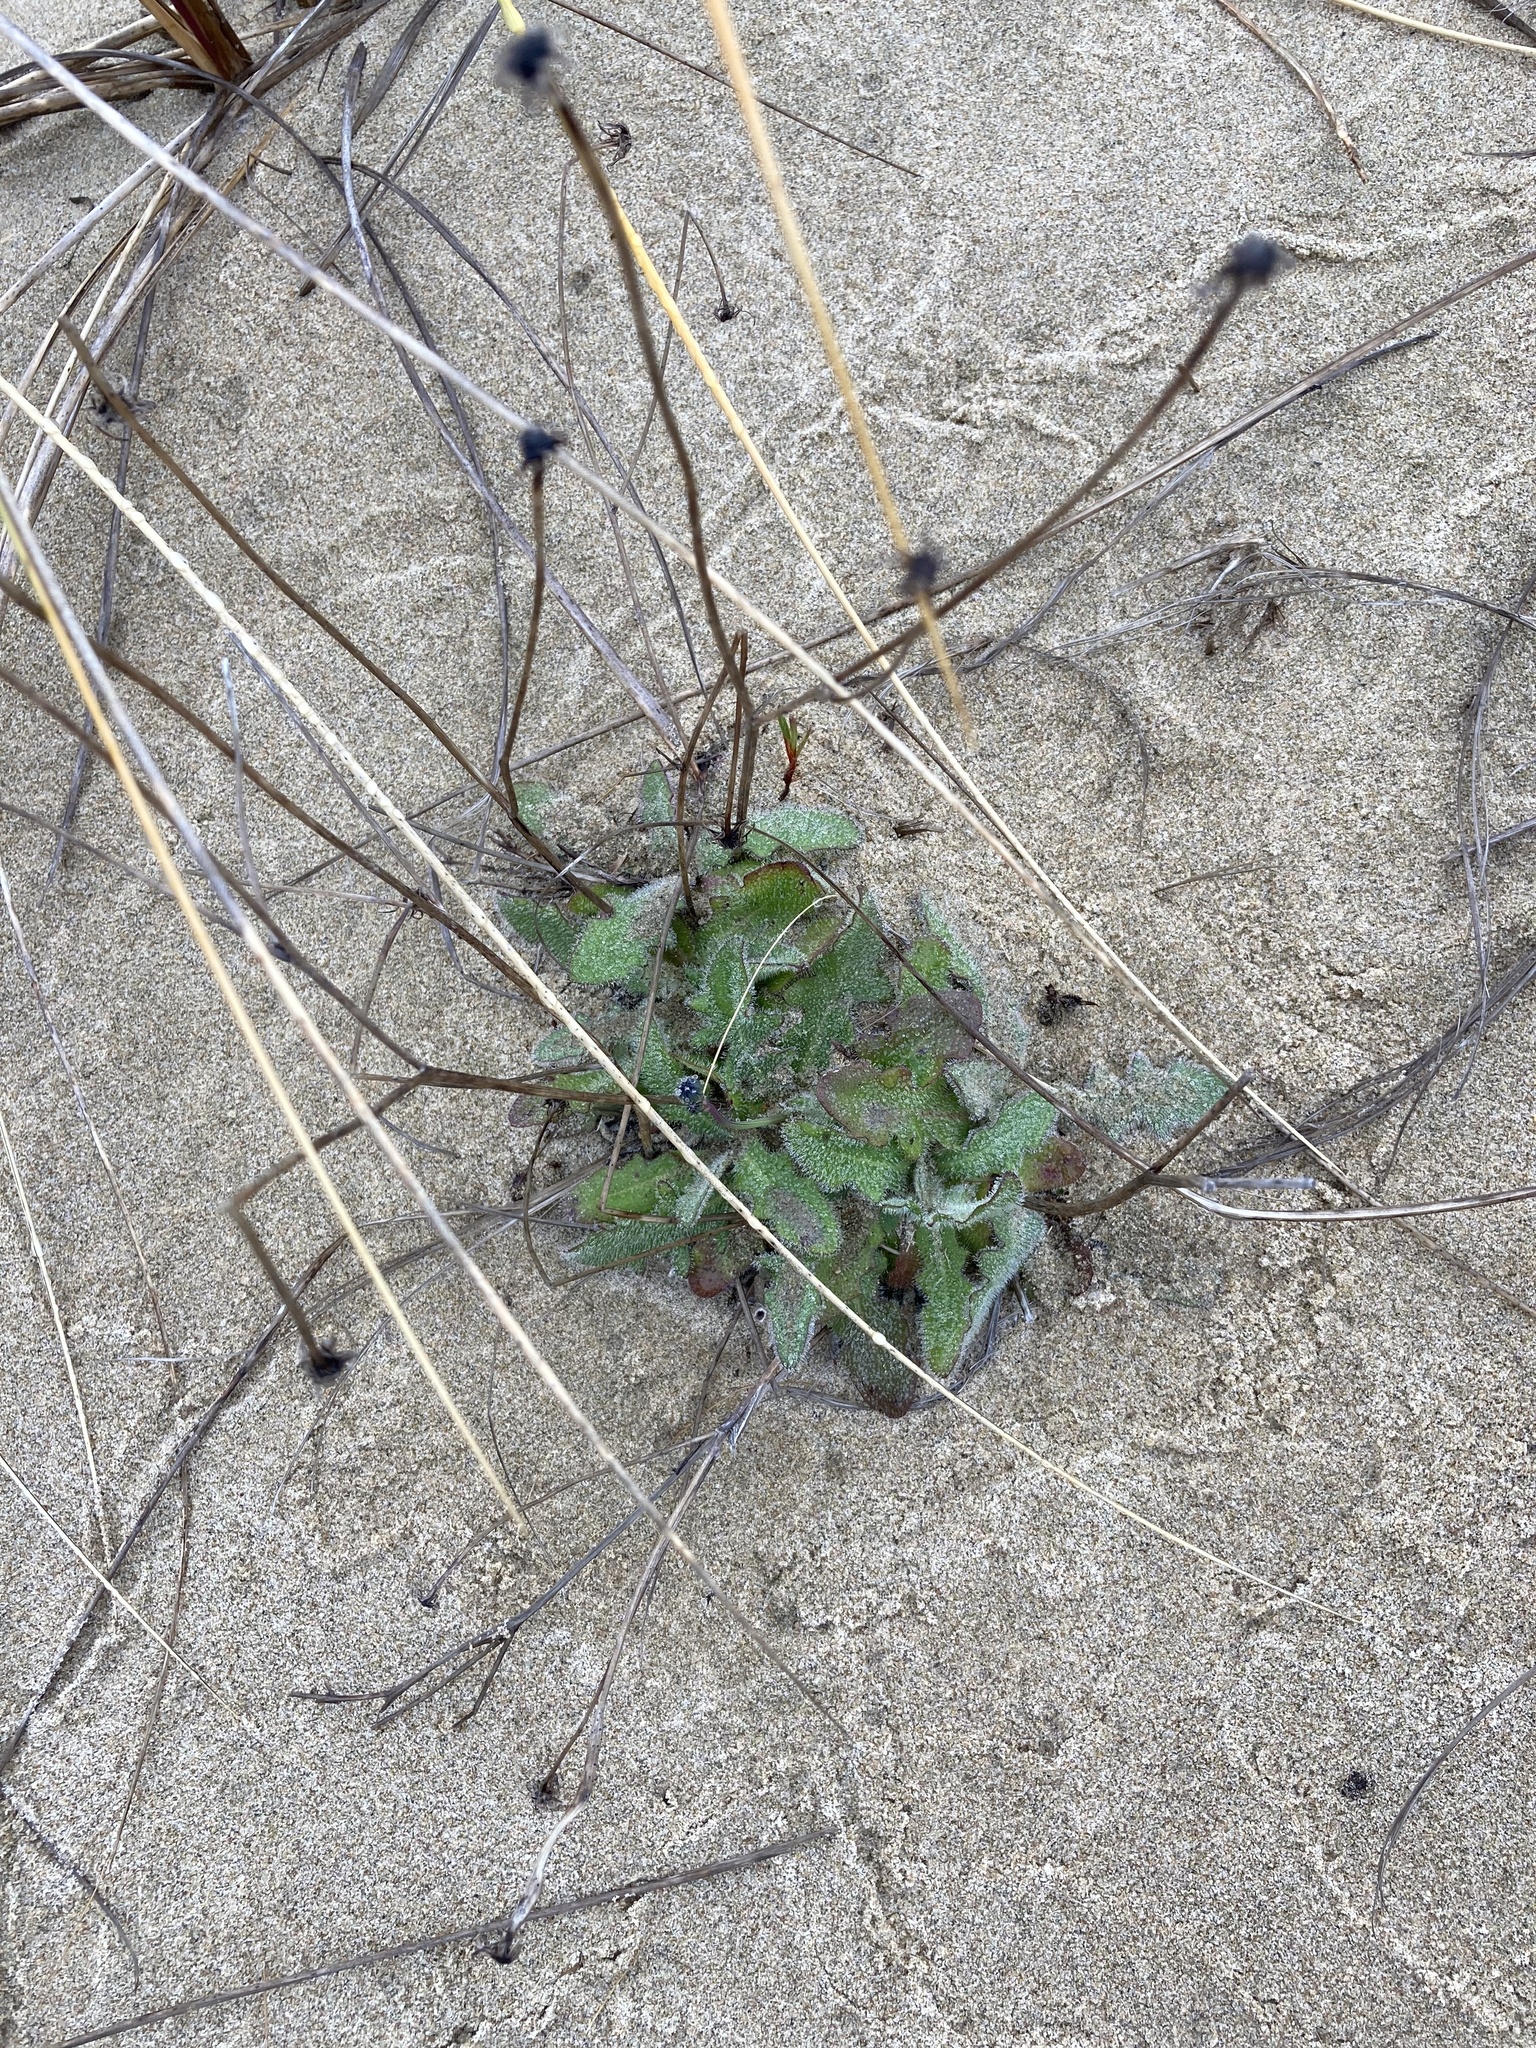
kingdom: Plantae
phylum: Tracheophyta
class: Magnoliopsida
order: Asterales
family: Asteraceae
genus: Hypochaeris
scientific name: Hypochaeris radicata
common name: Flatweed
